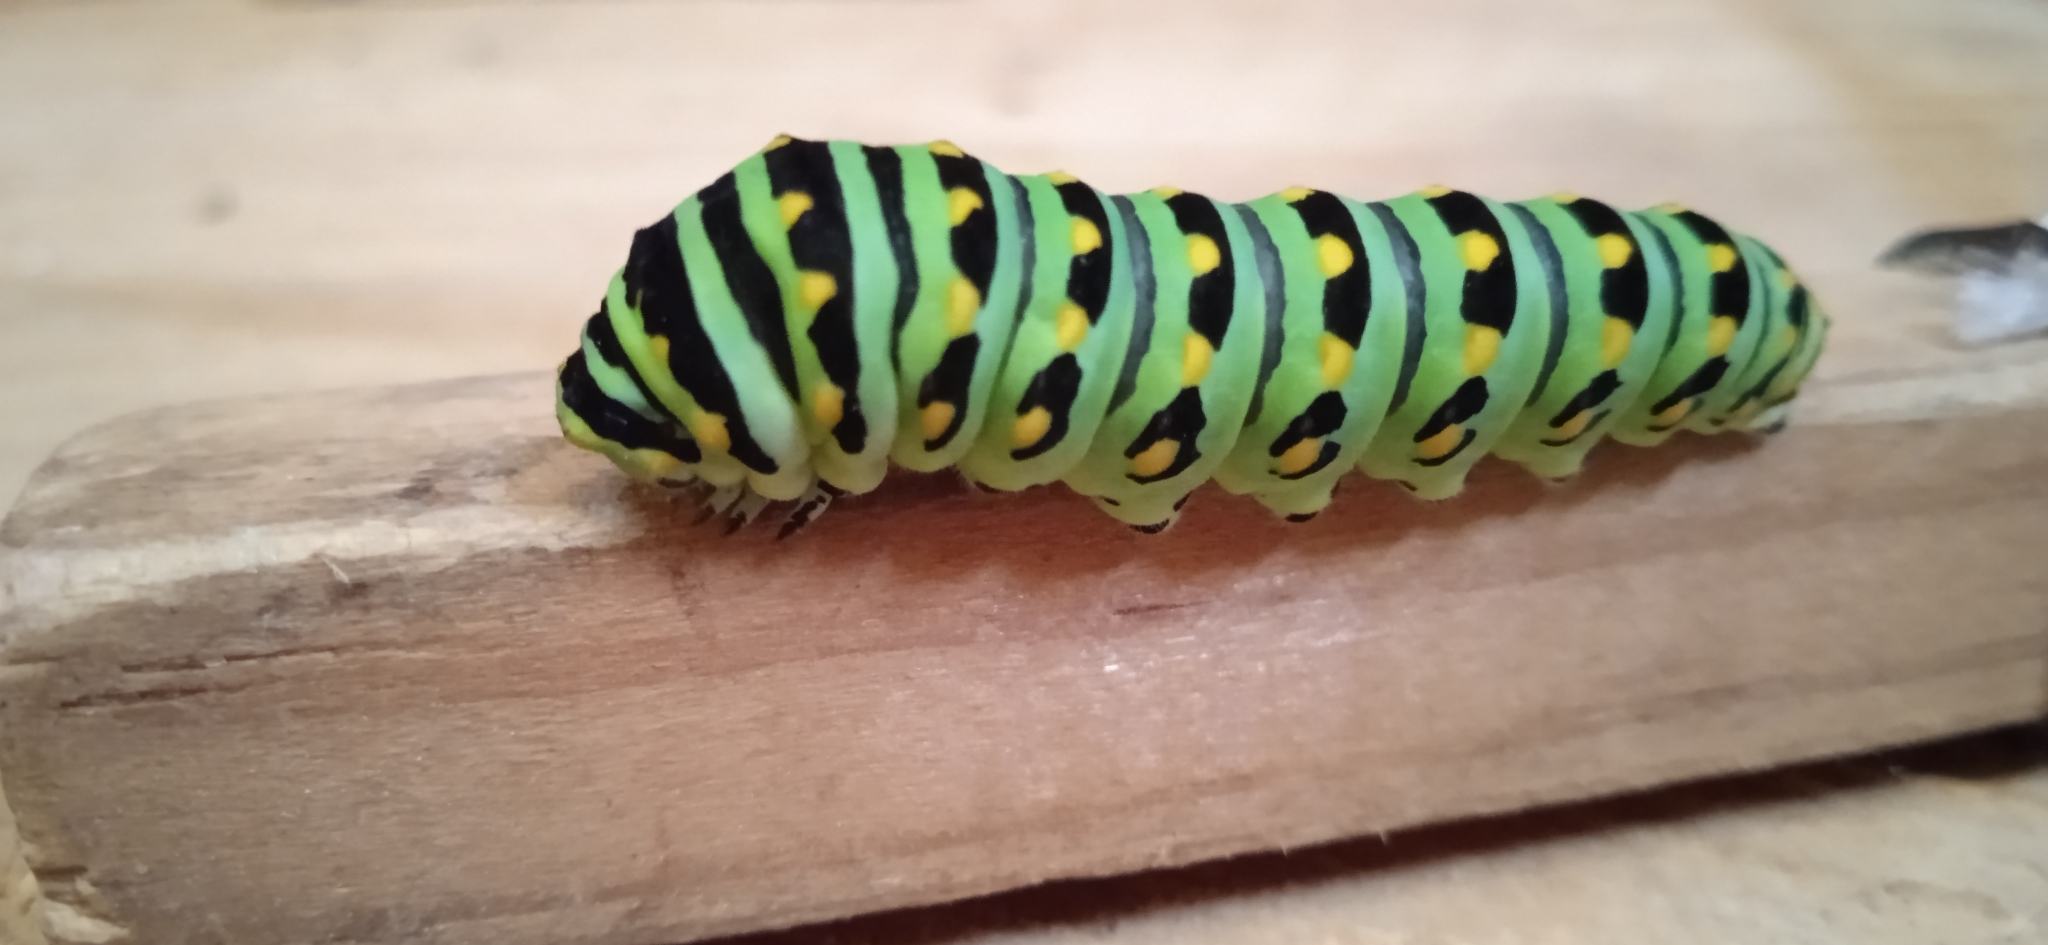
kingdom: Animalia
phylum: Arthropoda
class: Insecta
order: Lepidoptera
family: Papilionidae
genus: Papilio
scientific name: Papilio polyxenes
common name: Black swallowtail
